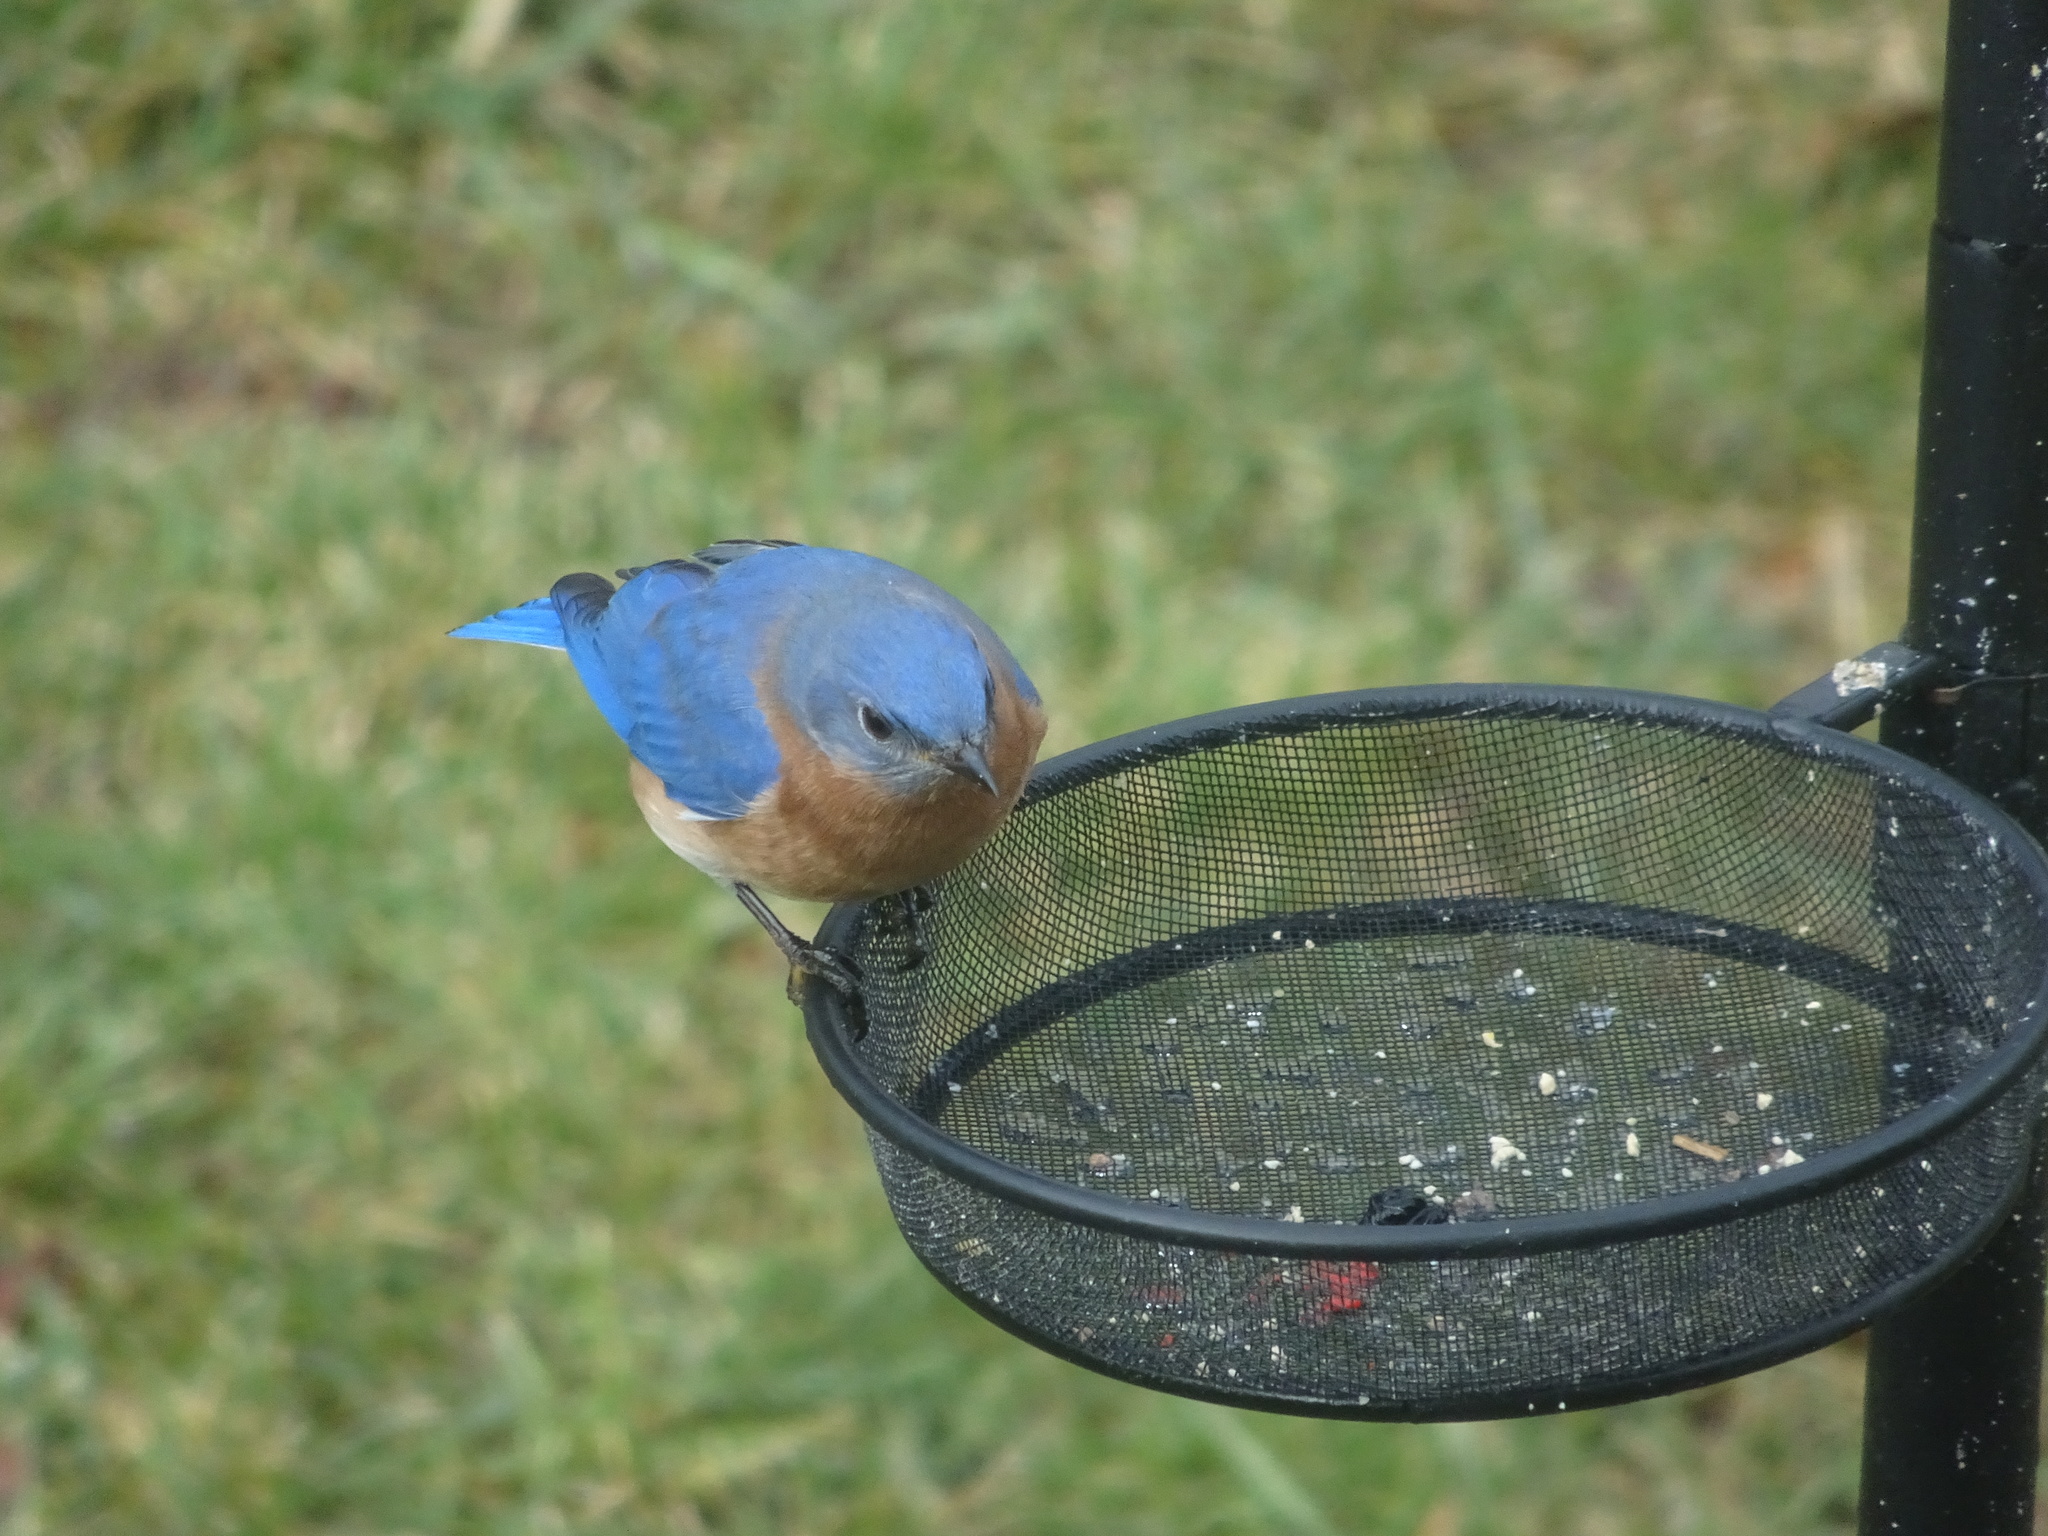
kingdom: Animalia
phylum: Chordata
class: Aves
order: Passeriformes
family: Turdidae
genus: Sialia
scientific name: Sialia sialis
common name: Eastern bluebird
